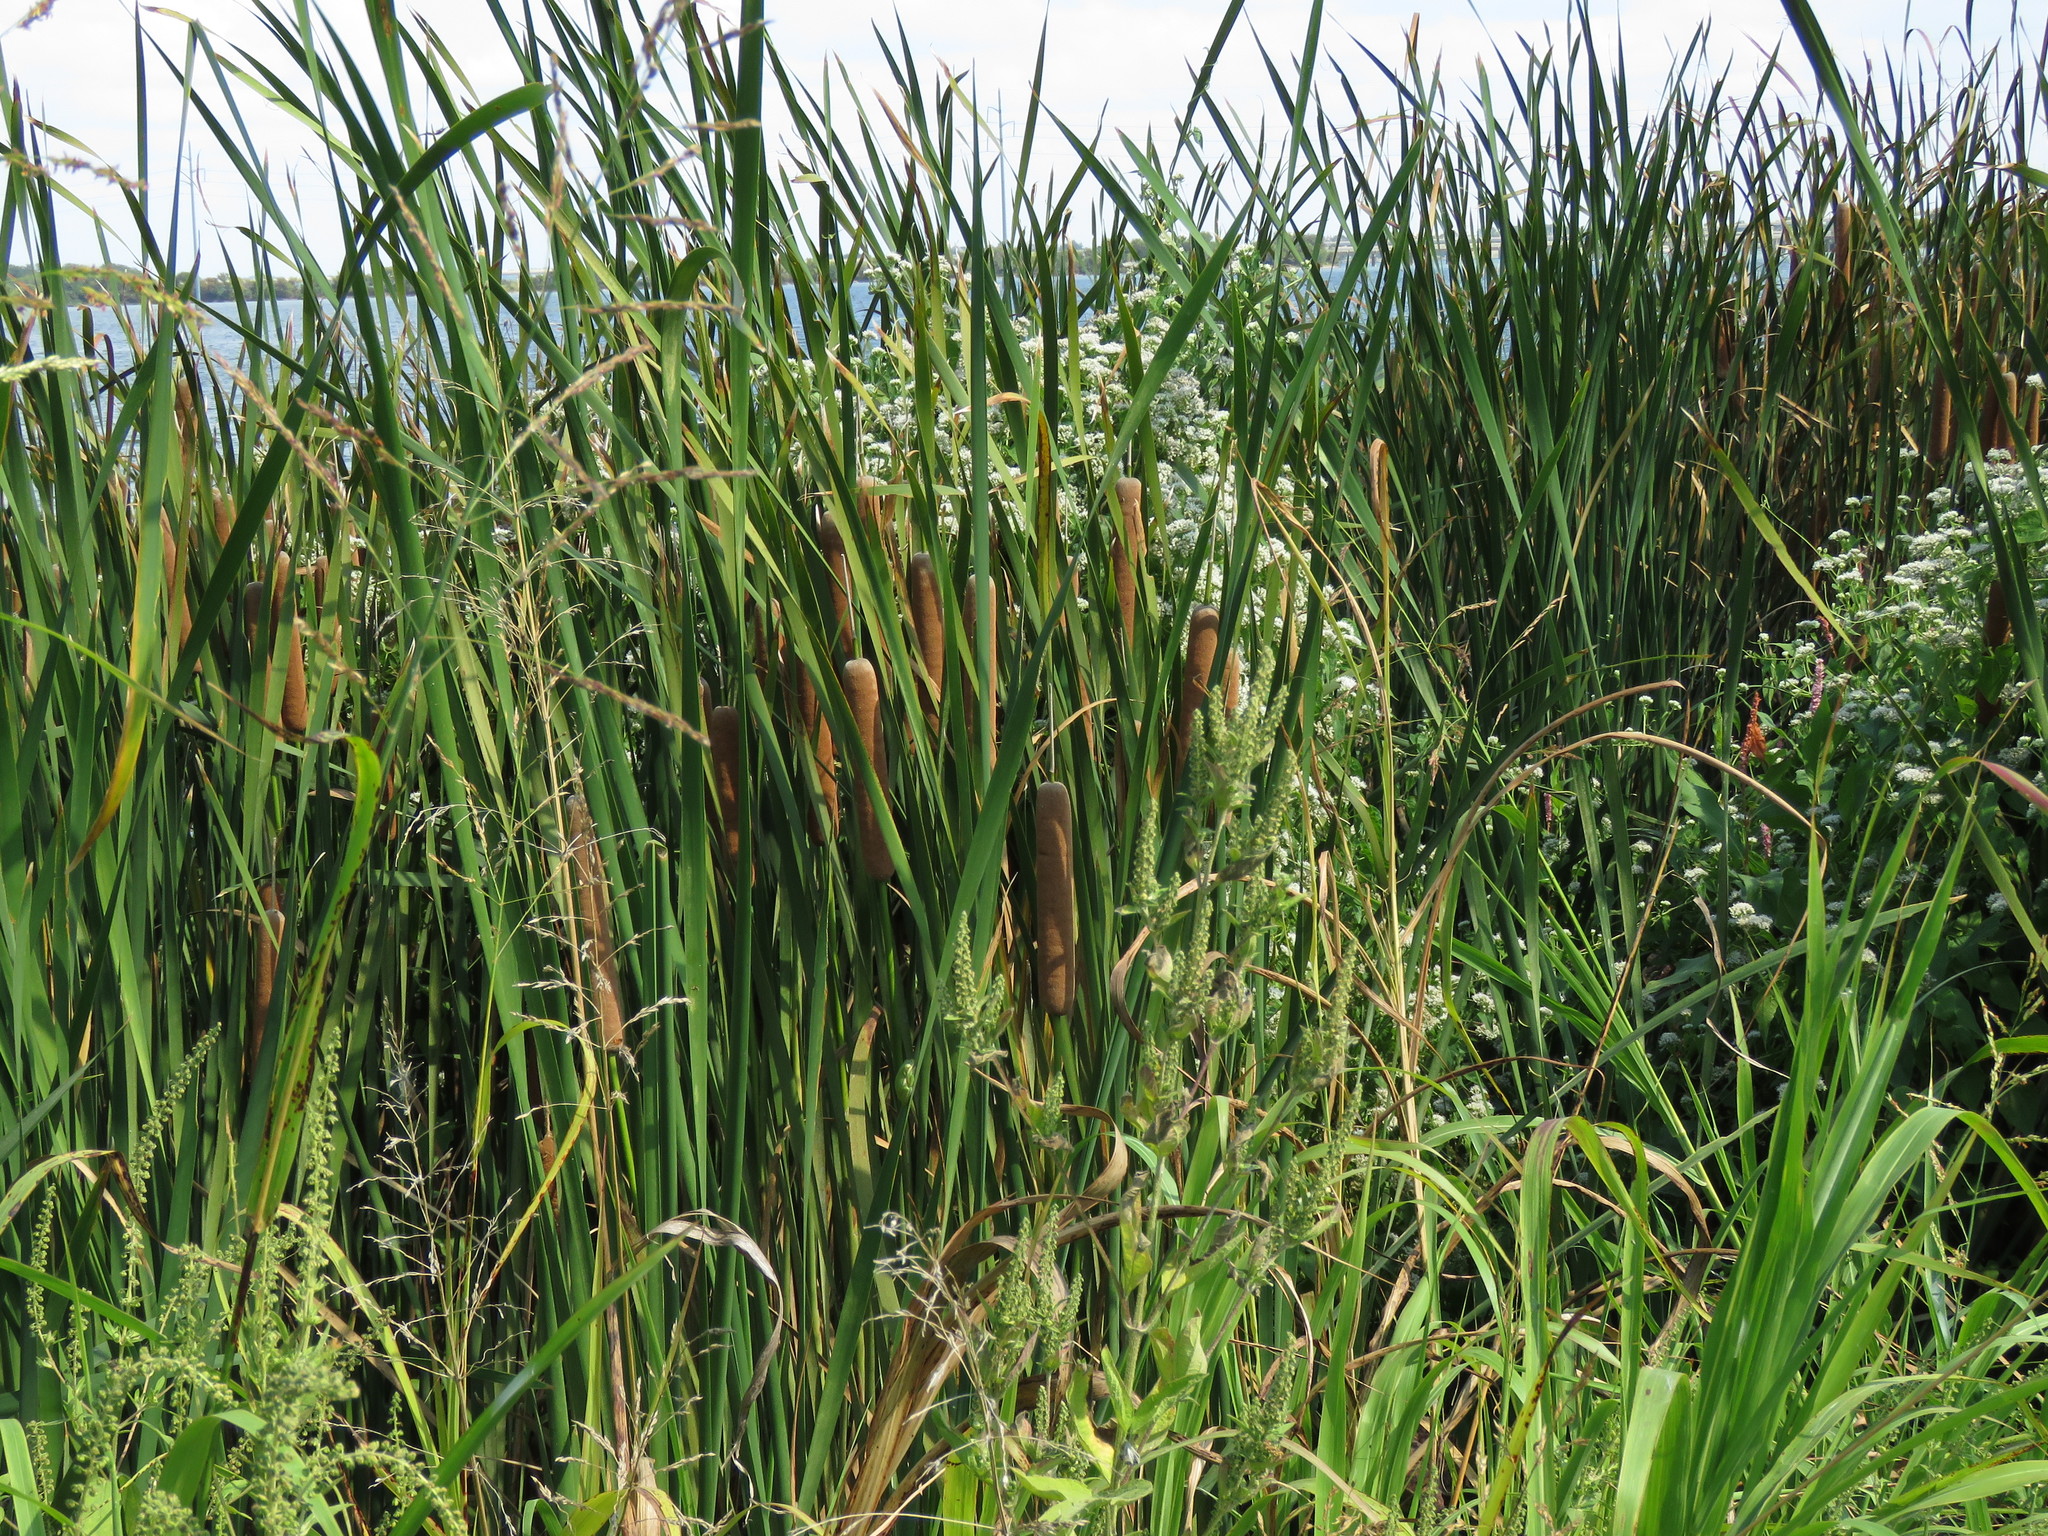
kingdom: Plantae
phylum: Tracheophyta
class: Liliopsida
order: Poales
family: Typhaceae
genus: Typha
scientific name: Typha domingensis
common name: Southern cattail
